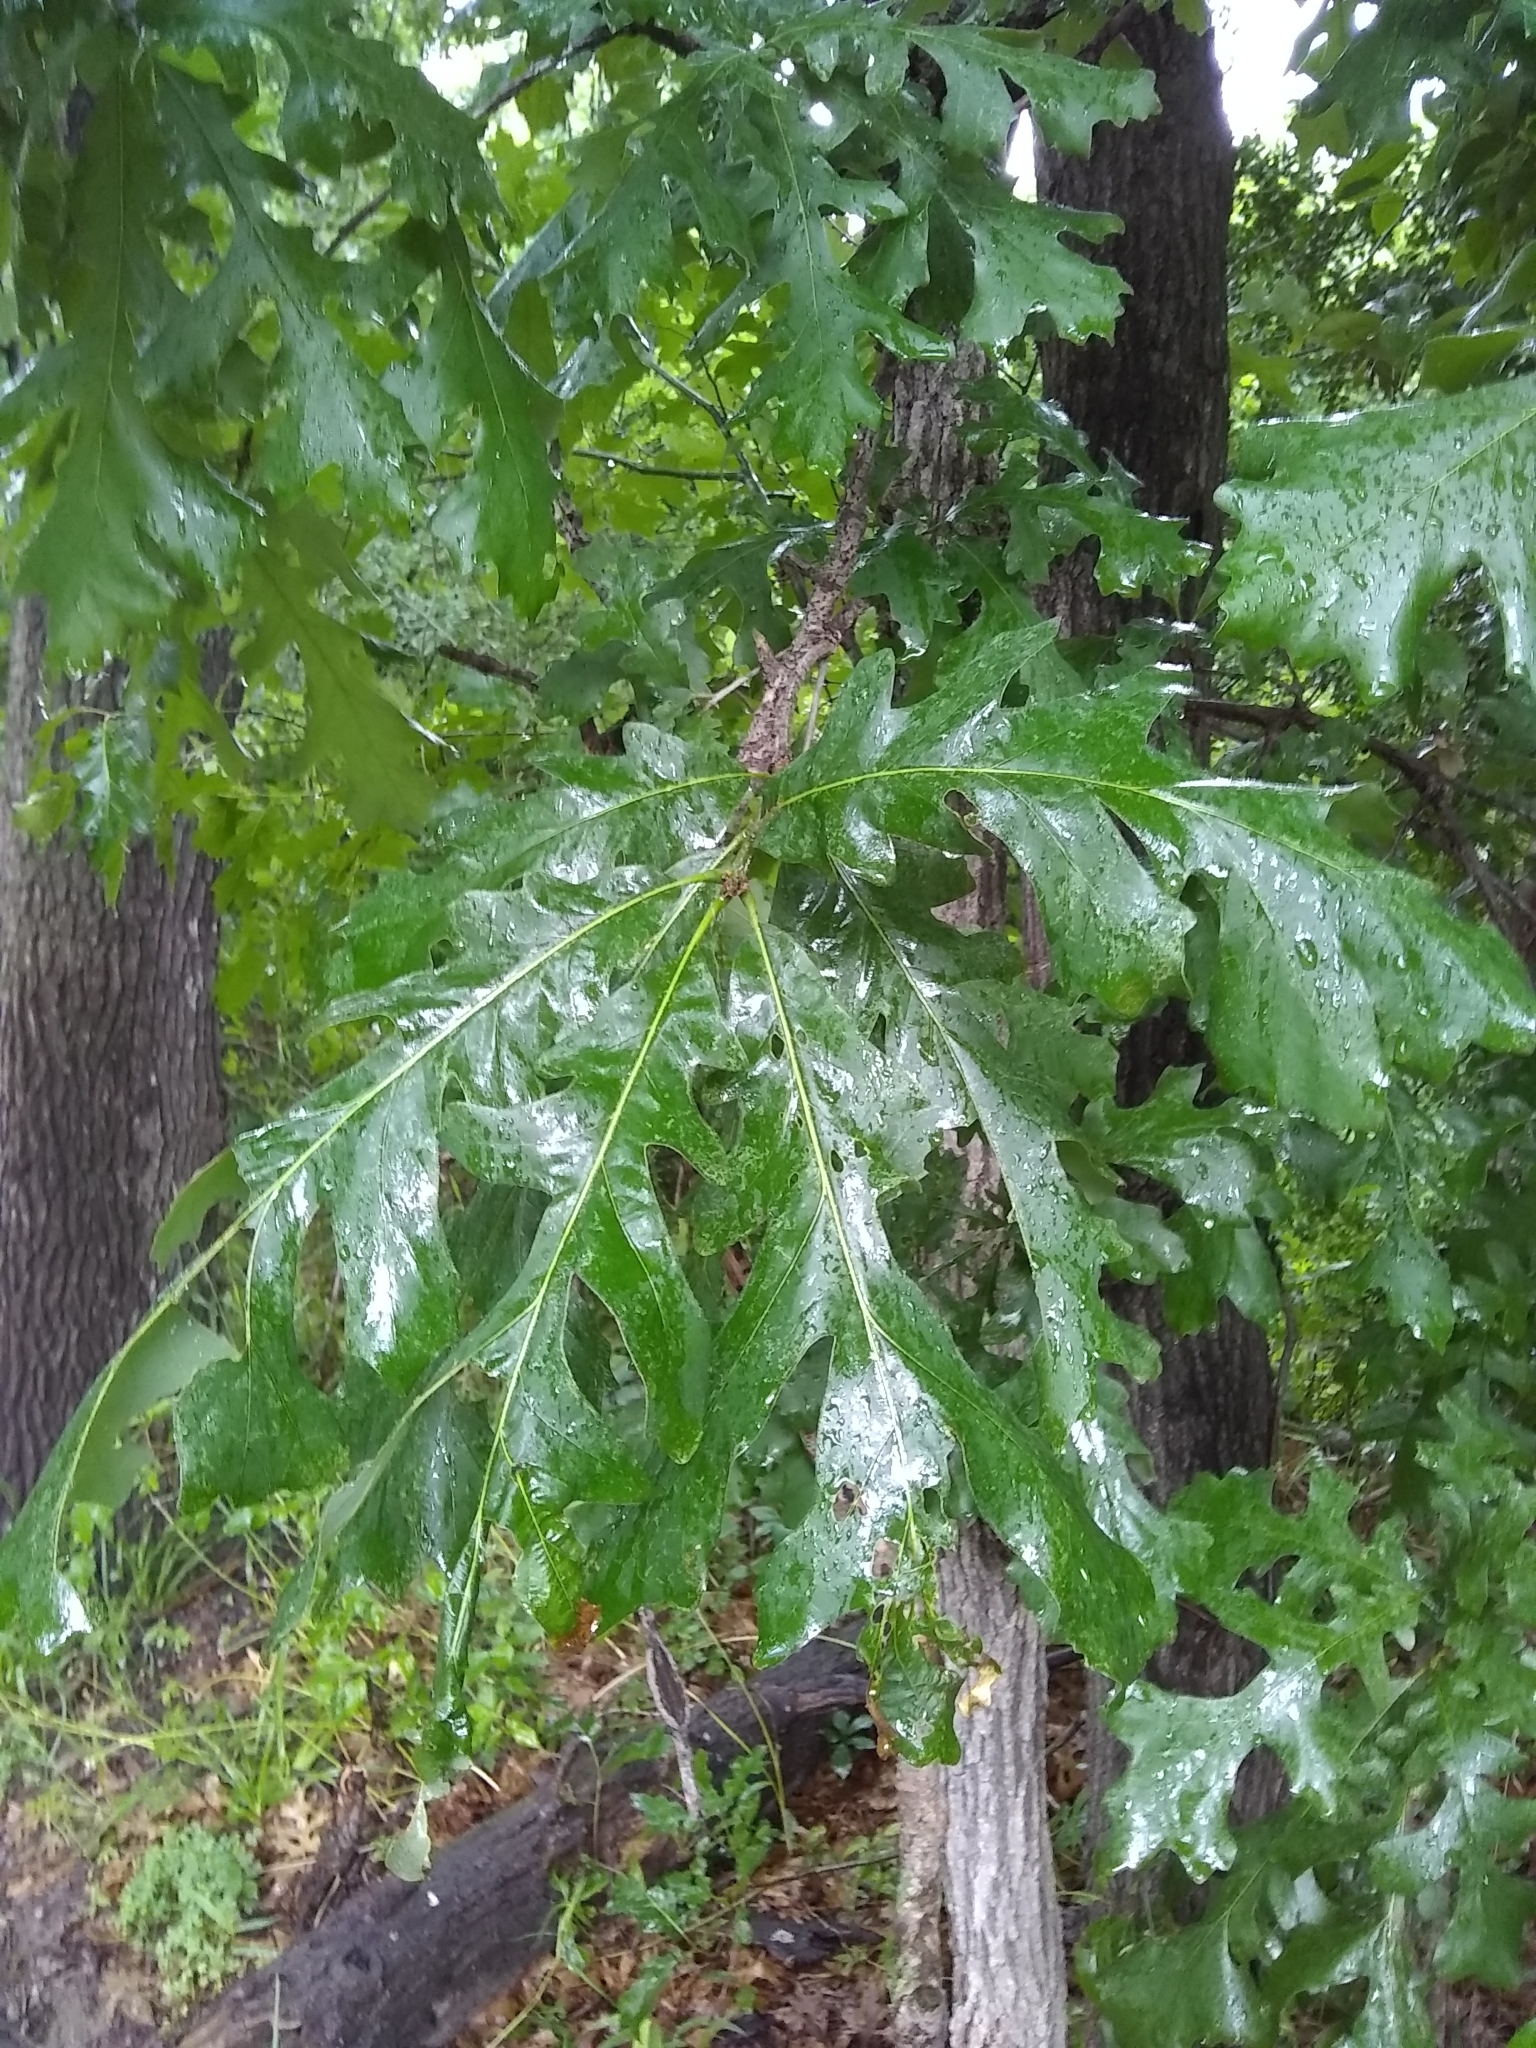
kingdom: Plantae
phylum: Tracheophyta
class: Magnoliopsida
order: Fagales
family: Fagaceae
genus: Quercus
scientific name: Quercus macrocarpa
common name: Bur oak
